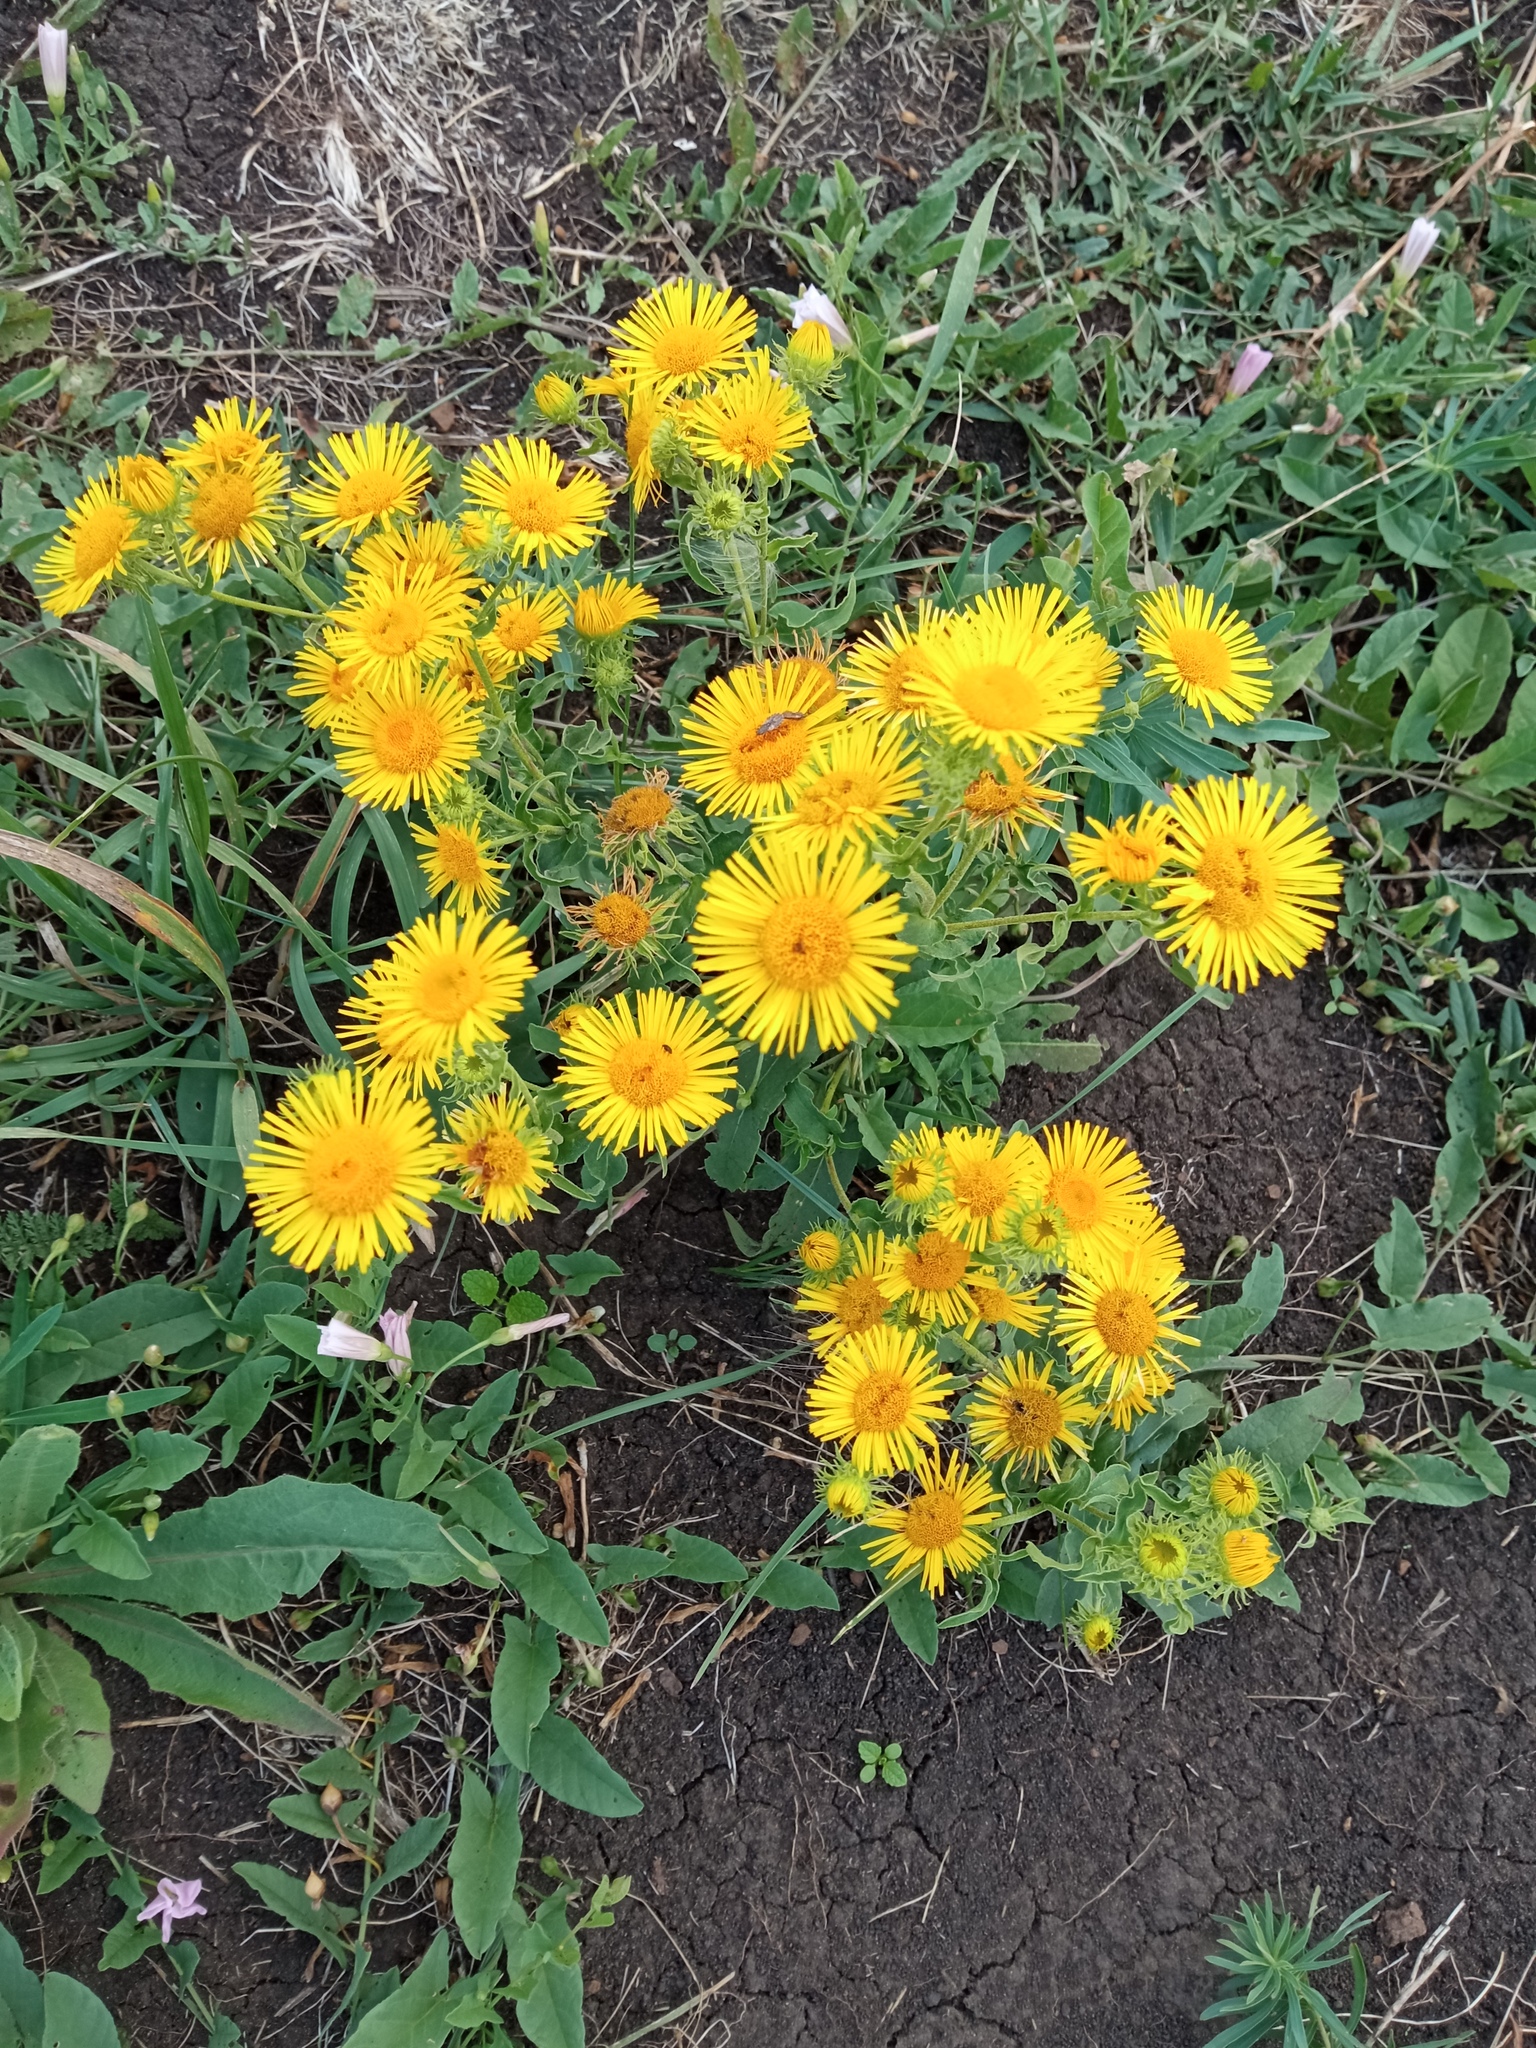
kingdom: Plantae
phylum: Tracheophyta
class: Magnoliopsida
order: Asterales
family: Asteraceae
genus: Pentanema
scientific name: Pentanema britannicum
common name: British elecampane
